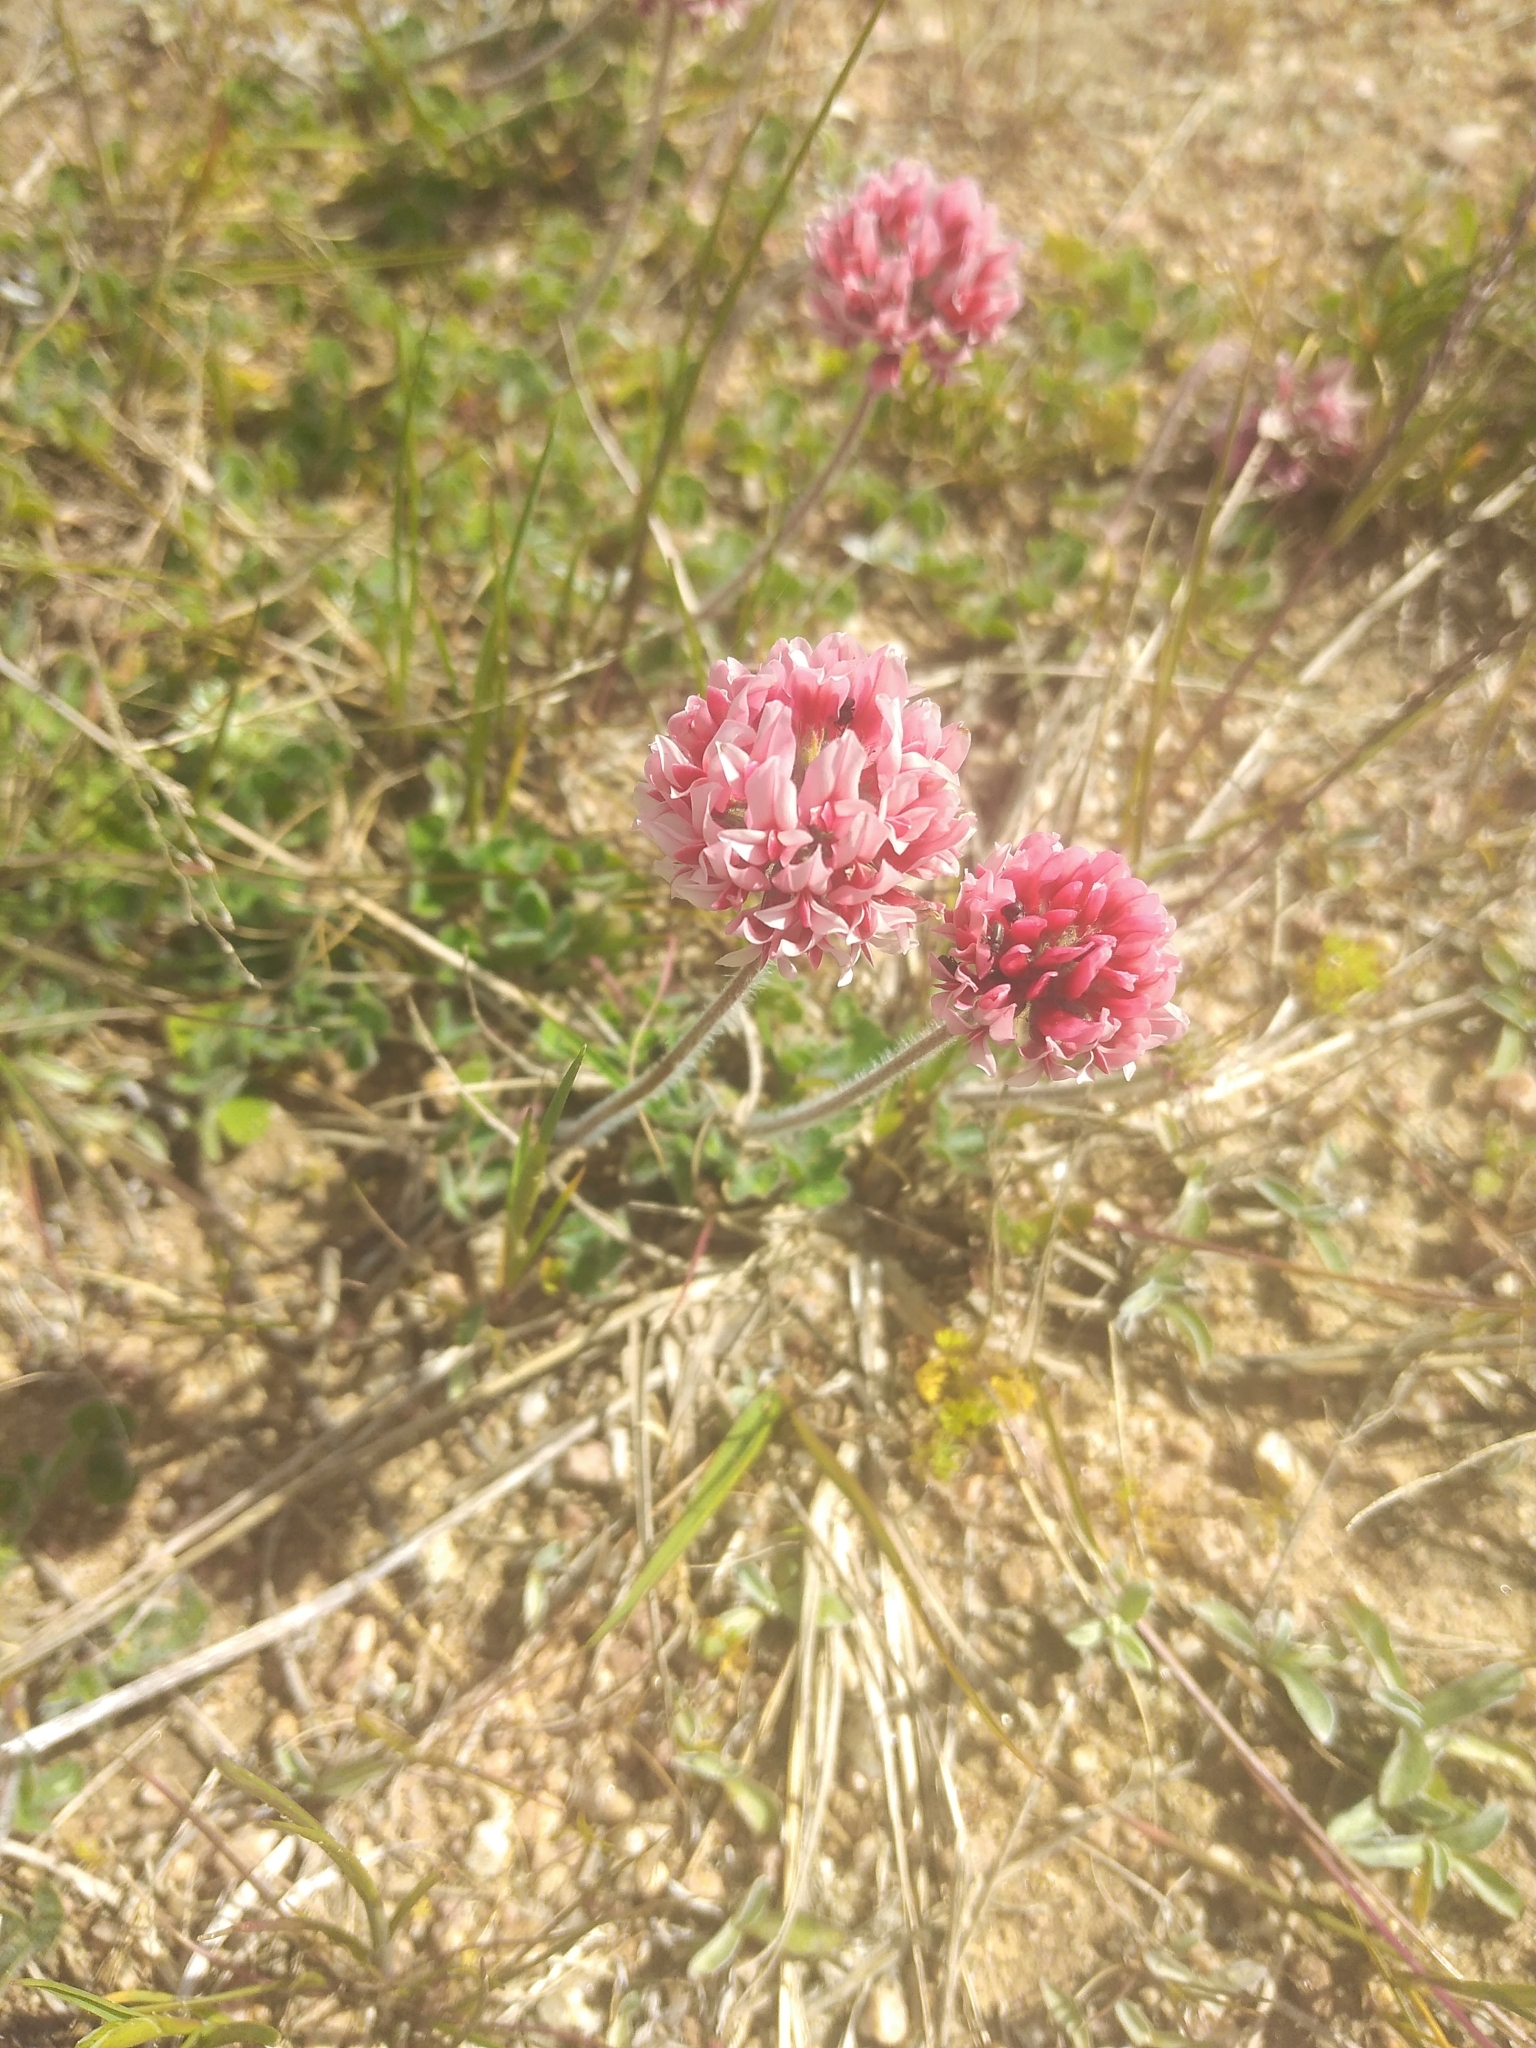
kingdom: Plantae
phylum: Tracheophyta
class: Magnoliopsida
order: Fabales
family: Fabaceae
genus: Trifolium
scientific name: Trifolium polymorphum
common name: Peanut clover
